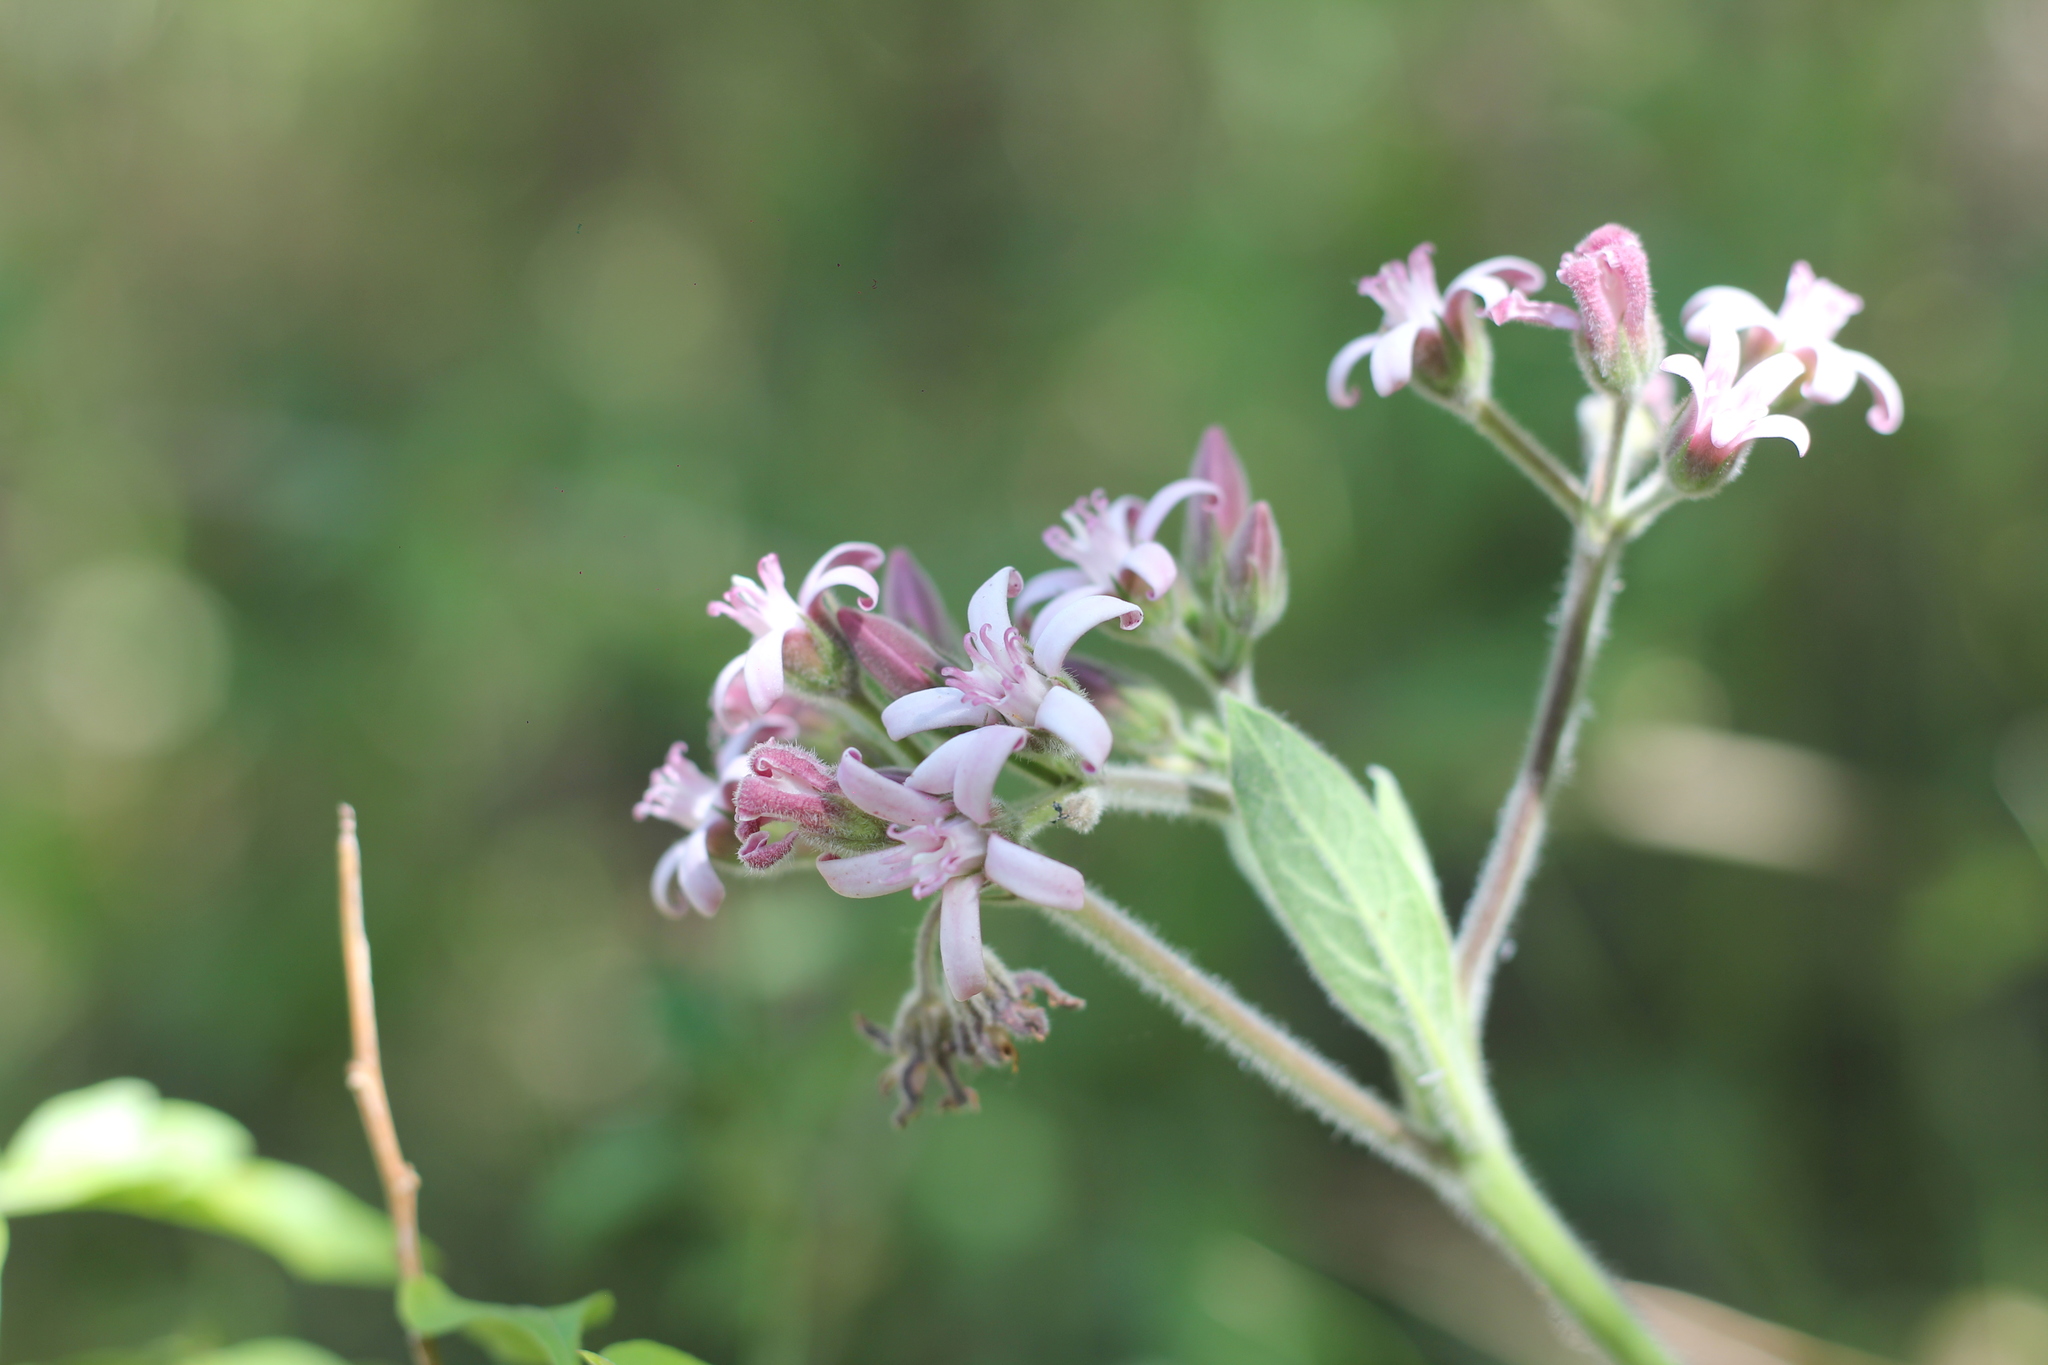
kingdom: Plantae
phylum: Tracheophyta
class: Magnoliopsida
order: Gentianales
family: Apocynaceae
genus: Oxypetalum
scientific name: Oxypetalum solanoides
